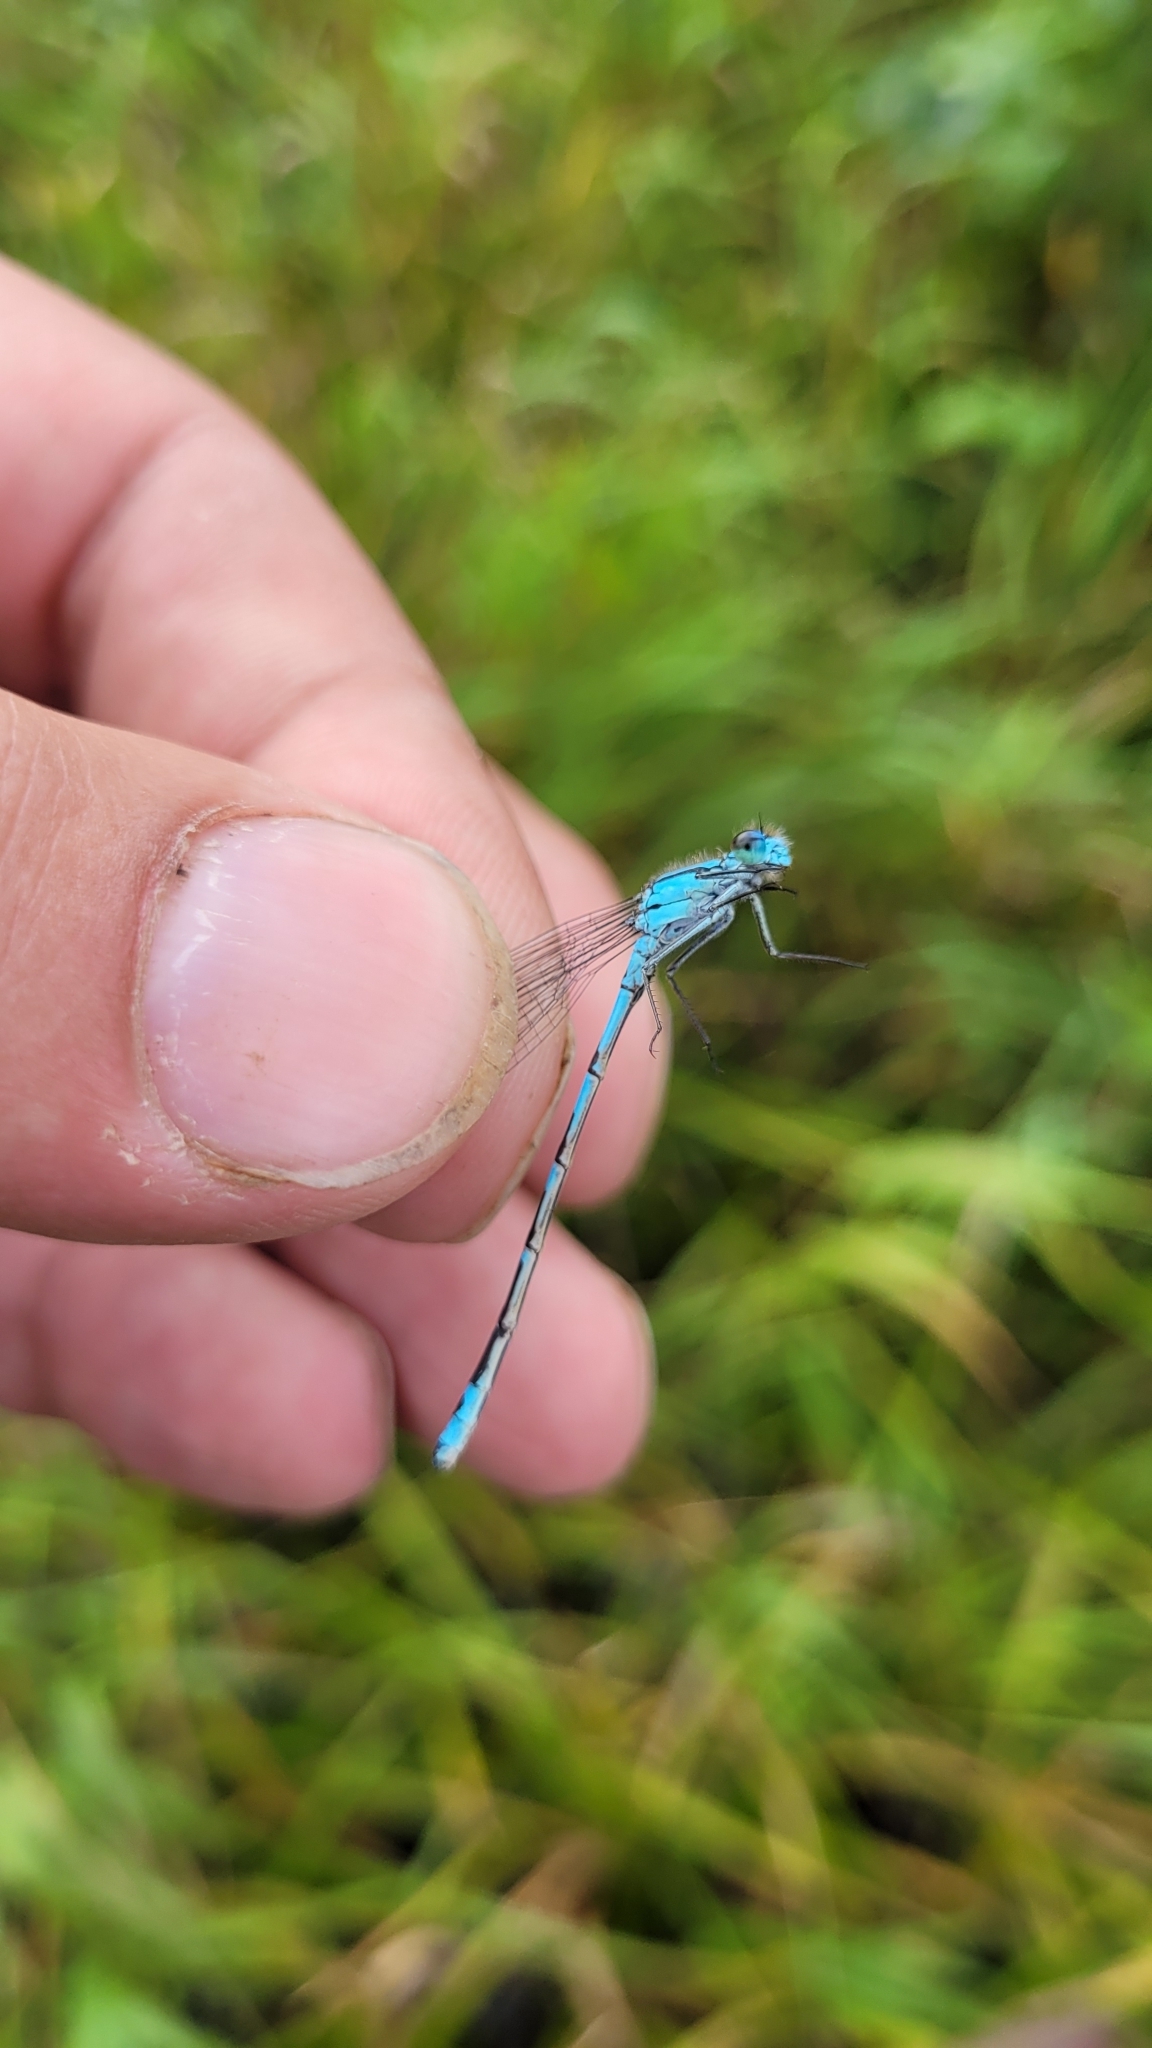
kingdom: Animalia
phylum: Arthropoda
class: Insecta
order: Odonata
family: Coenagrionidae
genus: Enallagma
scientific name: Enallagma circulatum
